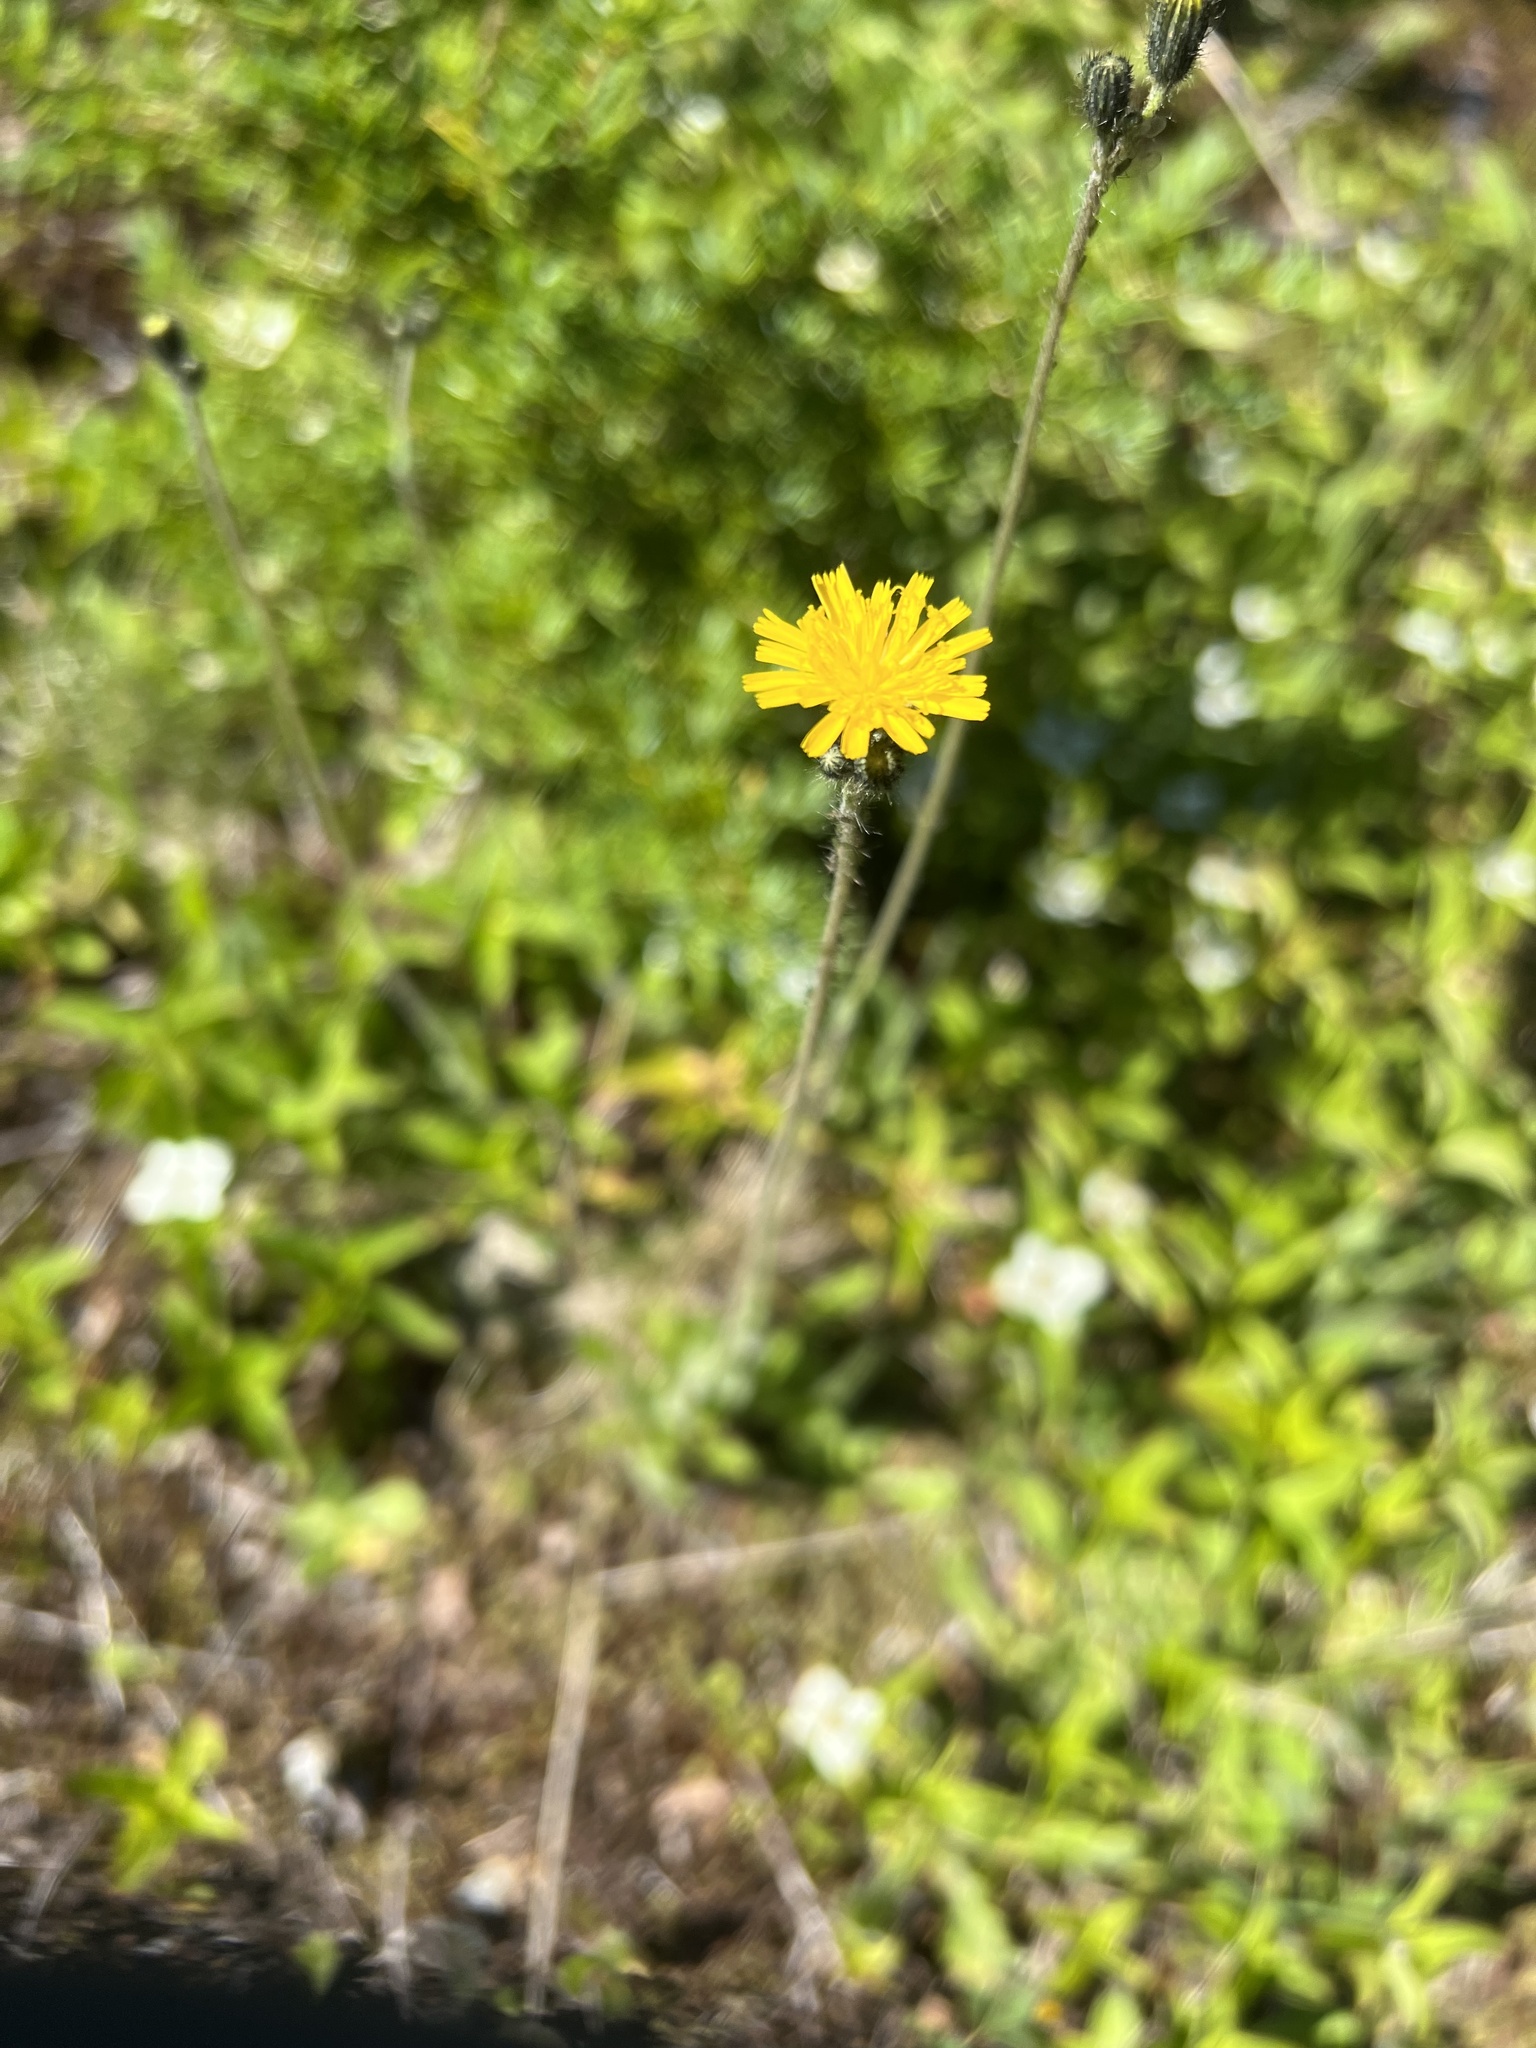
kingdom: Plantae
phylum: Tracheophyta
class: Magnoliopsida
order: Asterales
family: Asteraceae
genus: Pilosella
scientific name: Pilosella caespitosa
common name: Yellow fox-and-cubs
